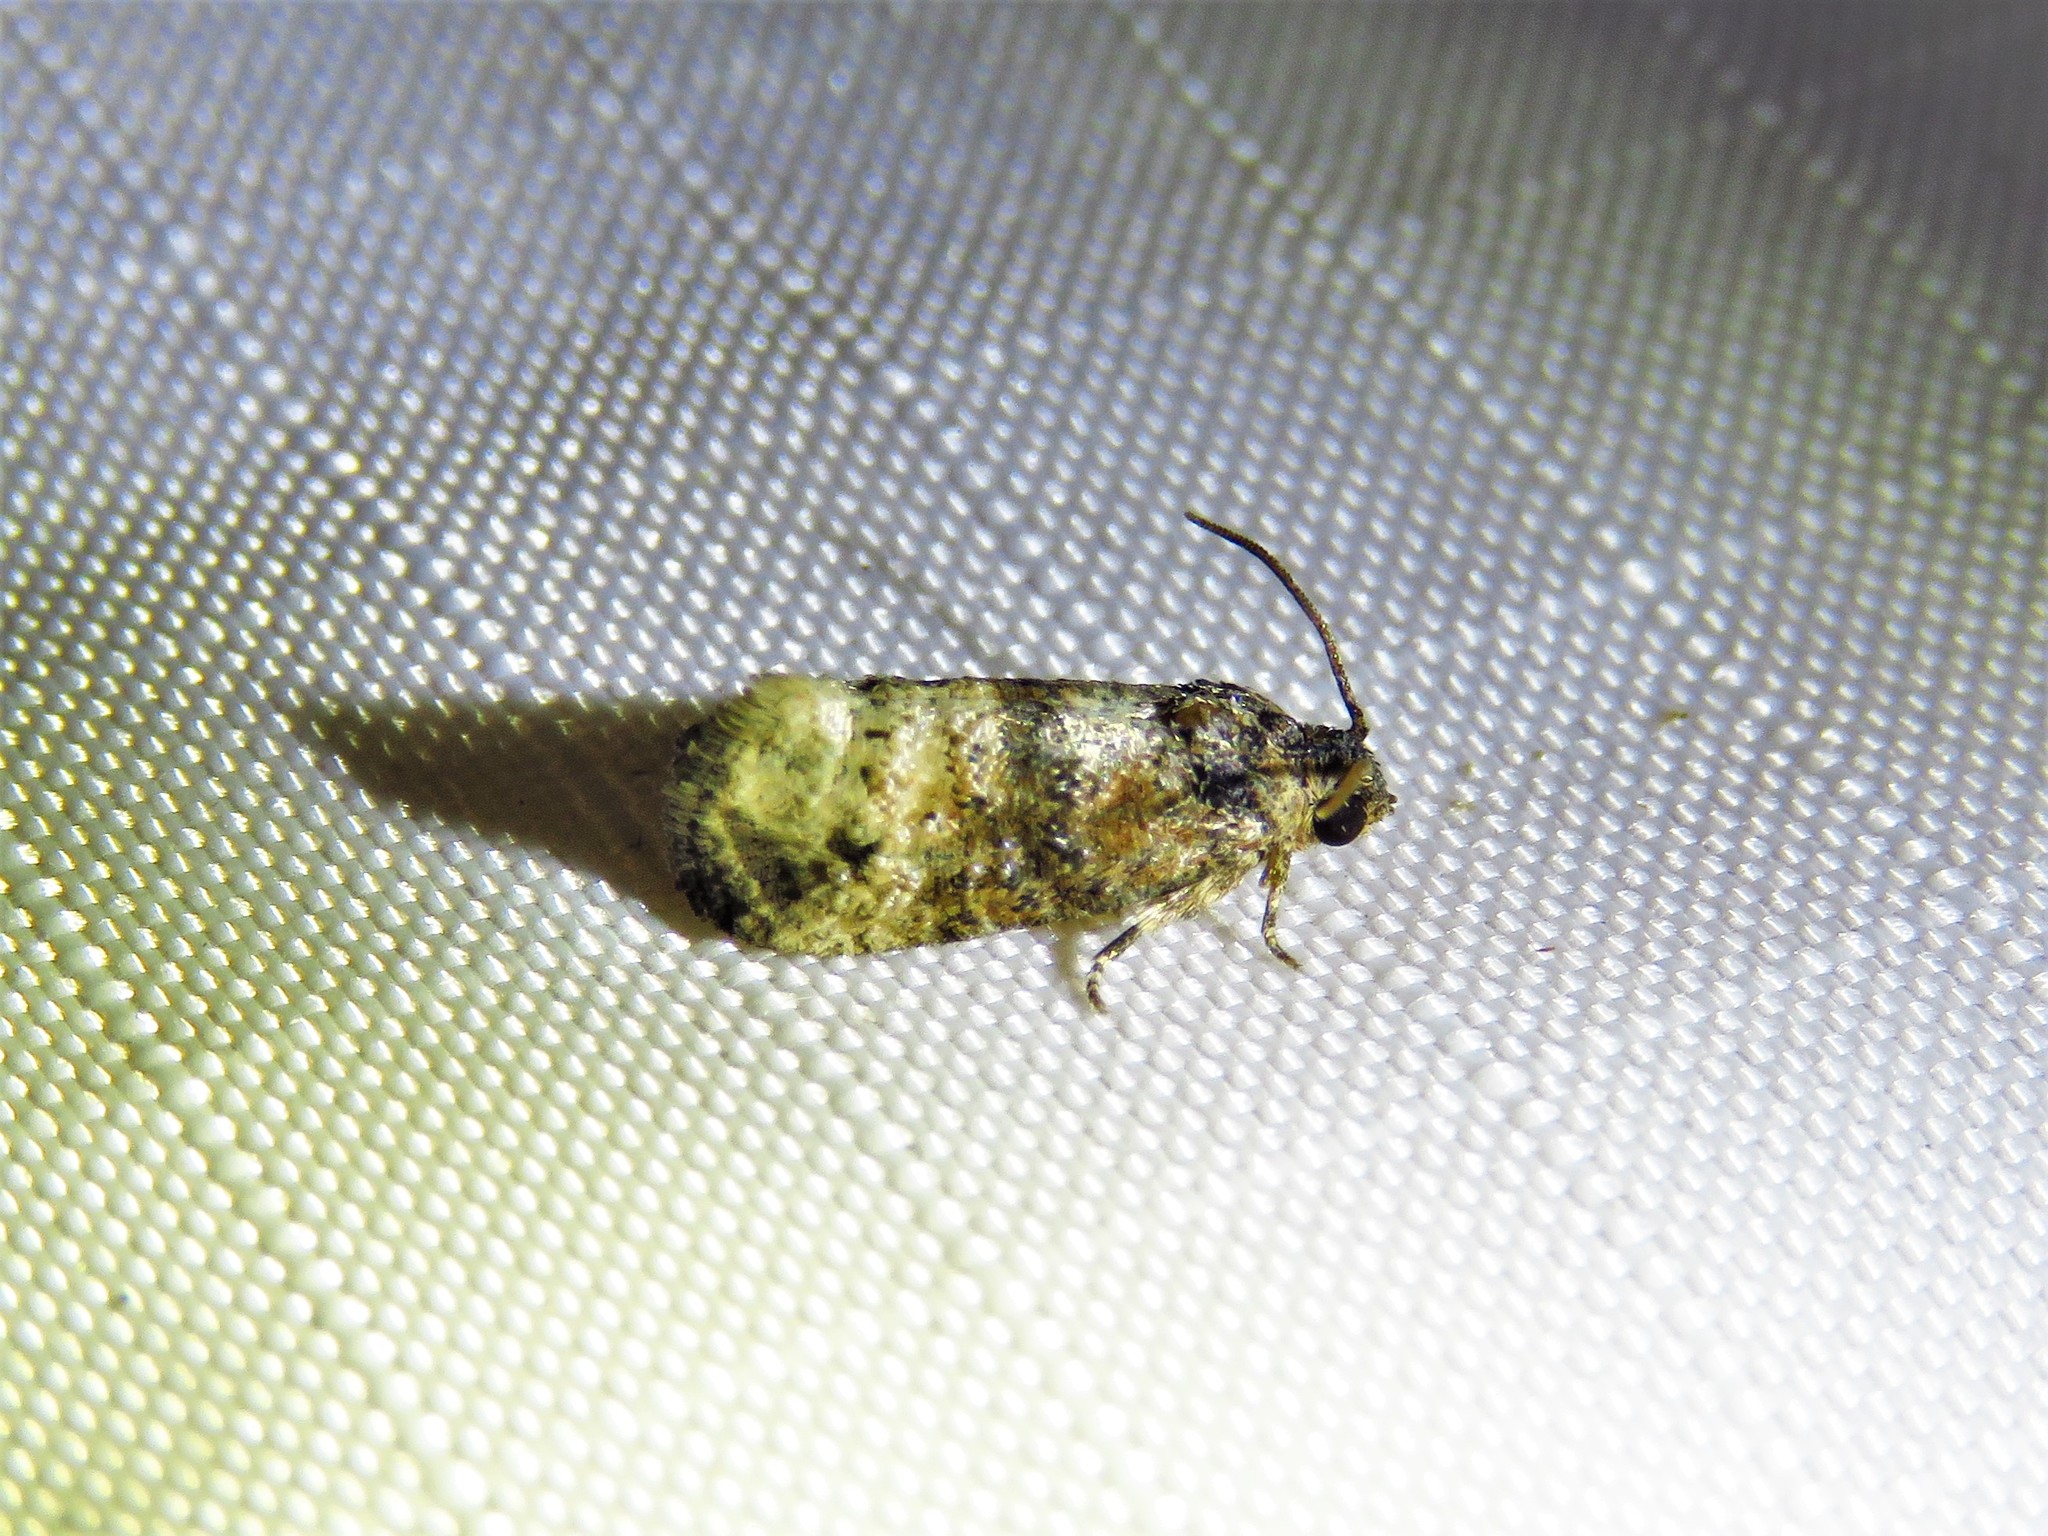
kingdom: Animalia
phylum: Arthropoda
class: Insecta
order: Lepidoptera
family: Tortricidae
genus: Ecdytolopha
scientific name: Ecdytolopha mana
